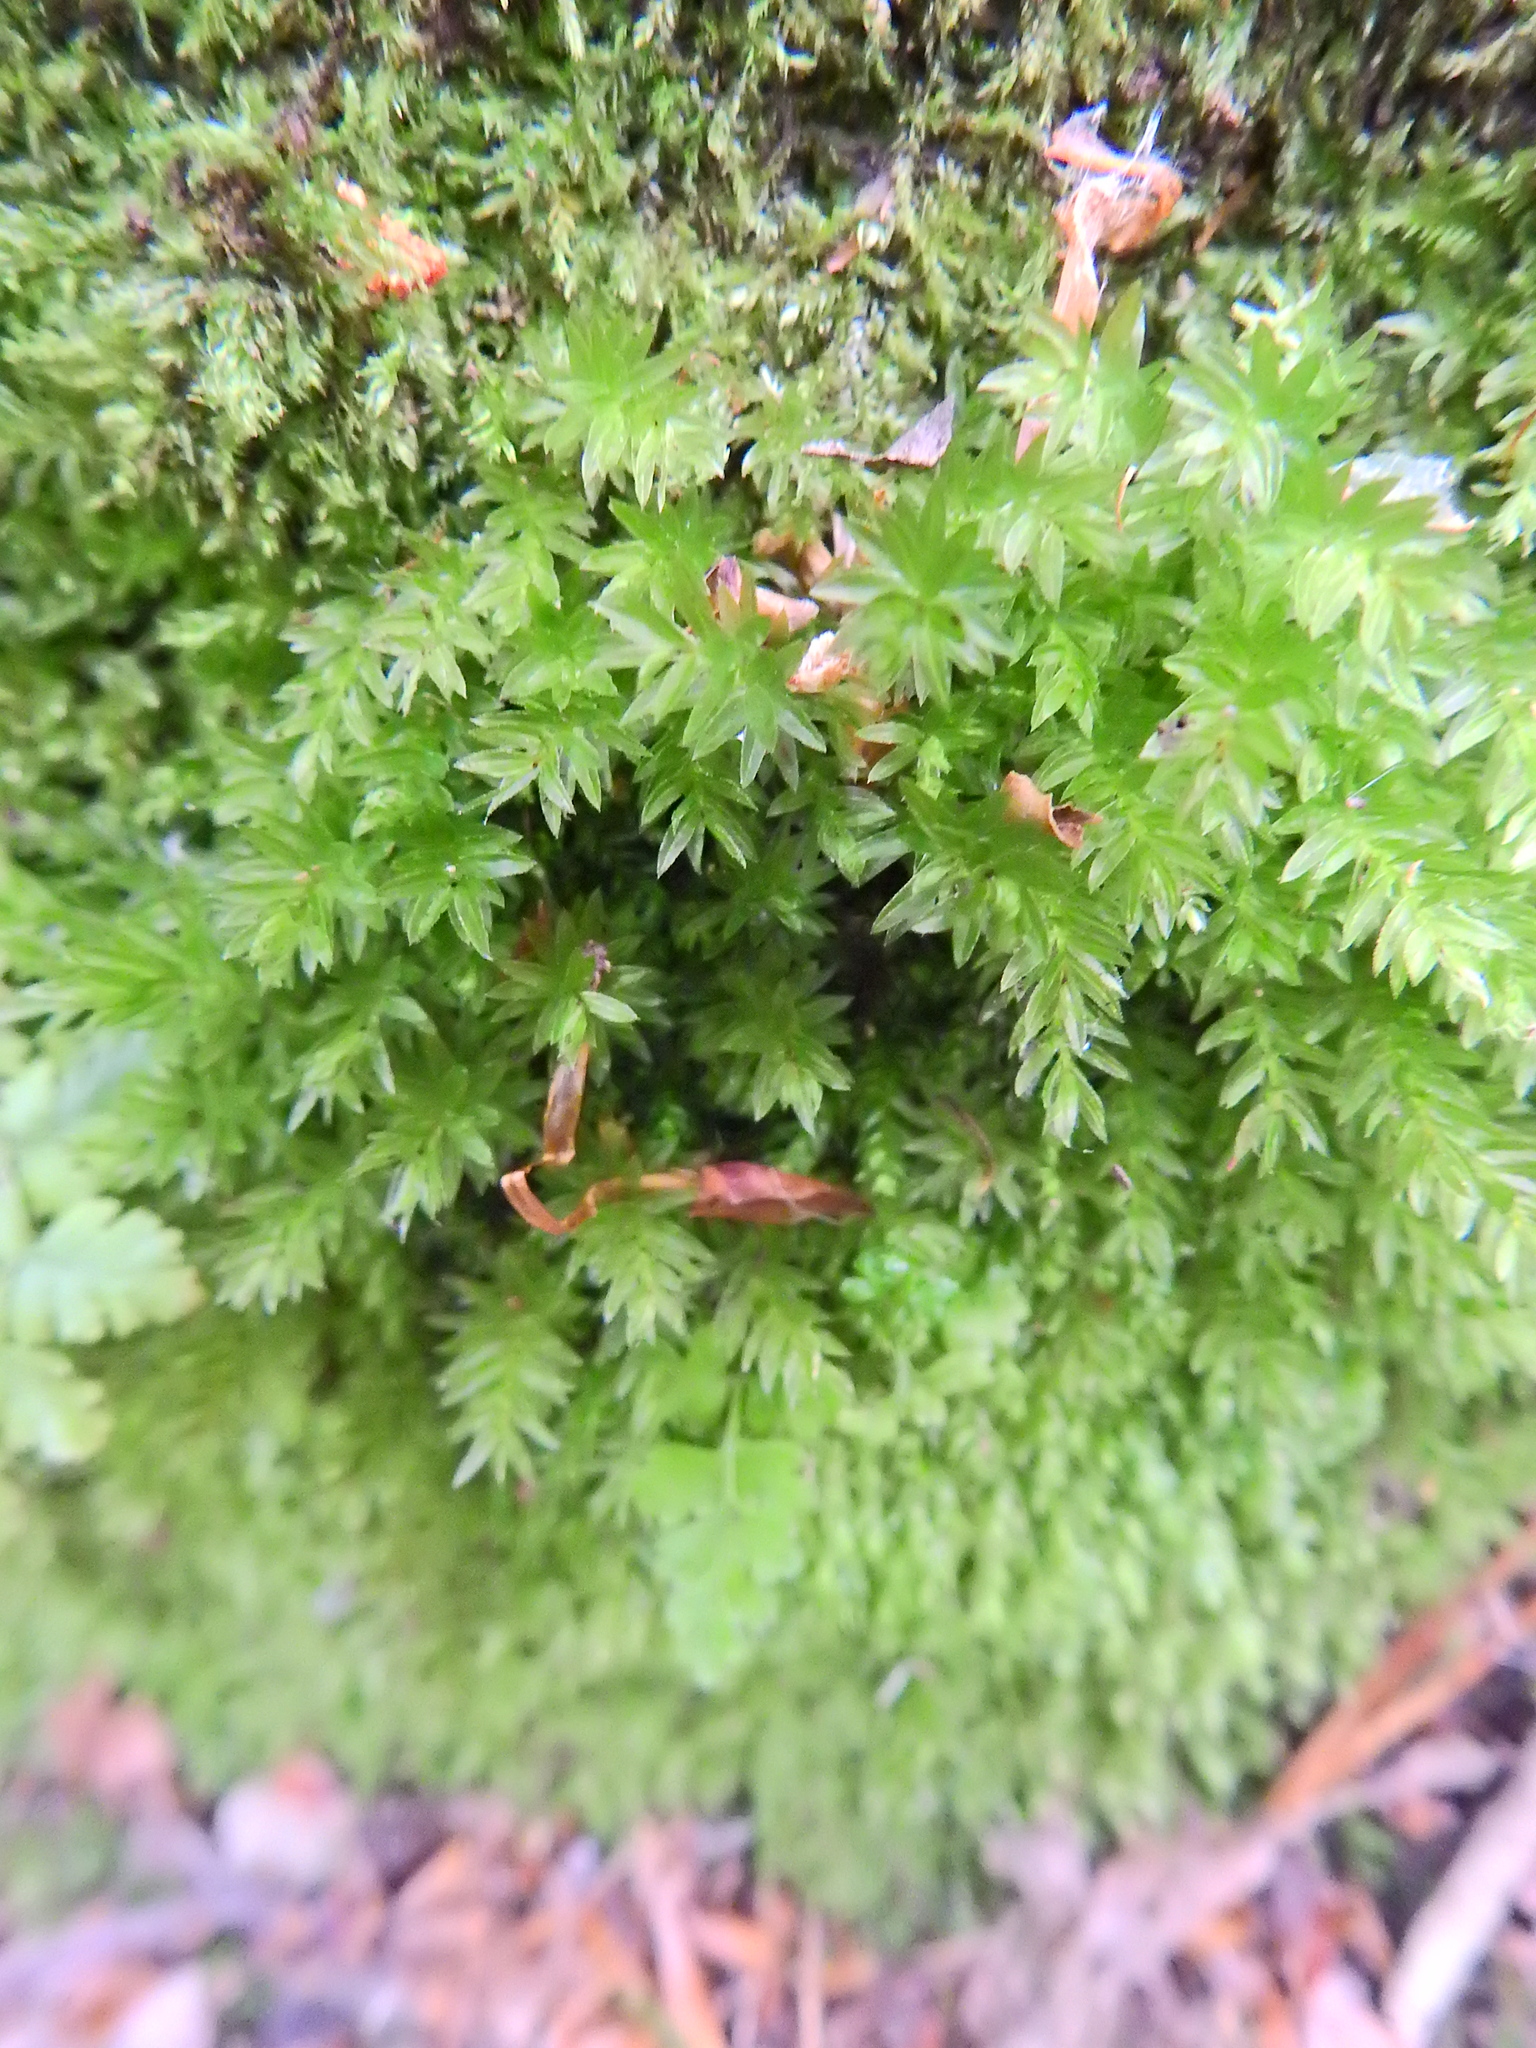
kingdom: Plantae
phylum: Bryophyta
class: Bryopsida
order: Bryales
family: Mniaceae
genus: Mnium
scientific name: Mnium hornum
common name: Swan's-neck leafy moss
